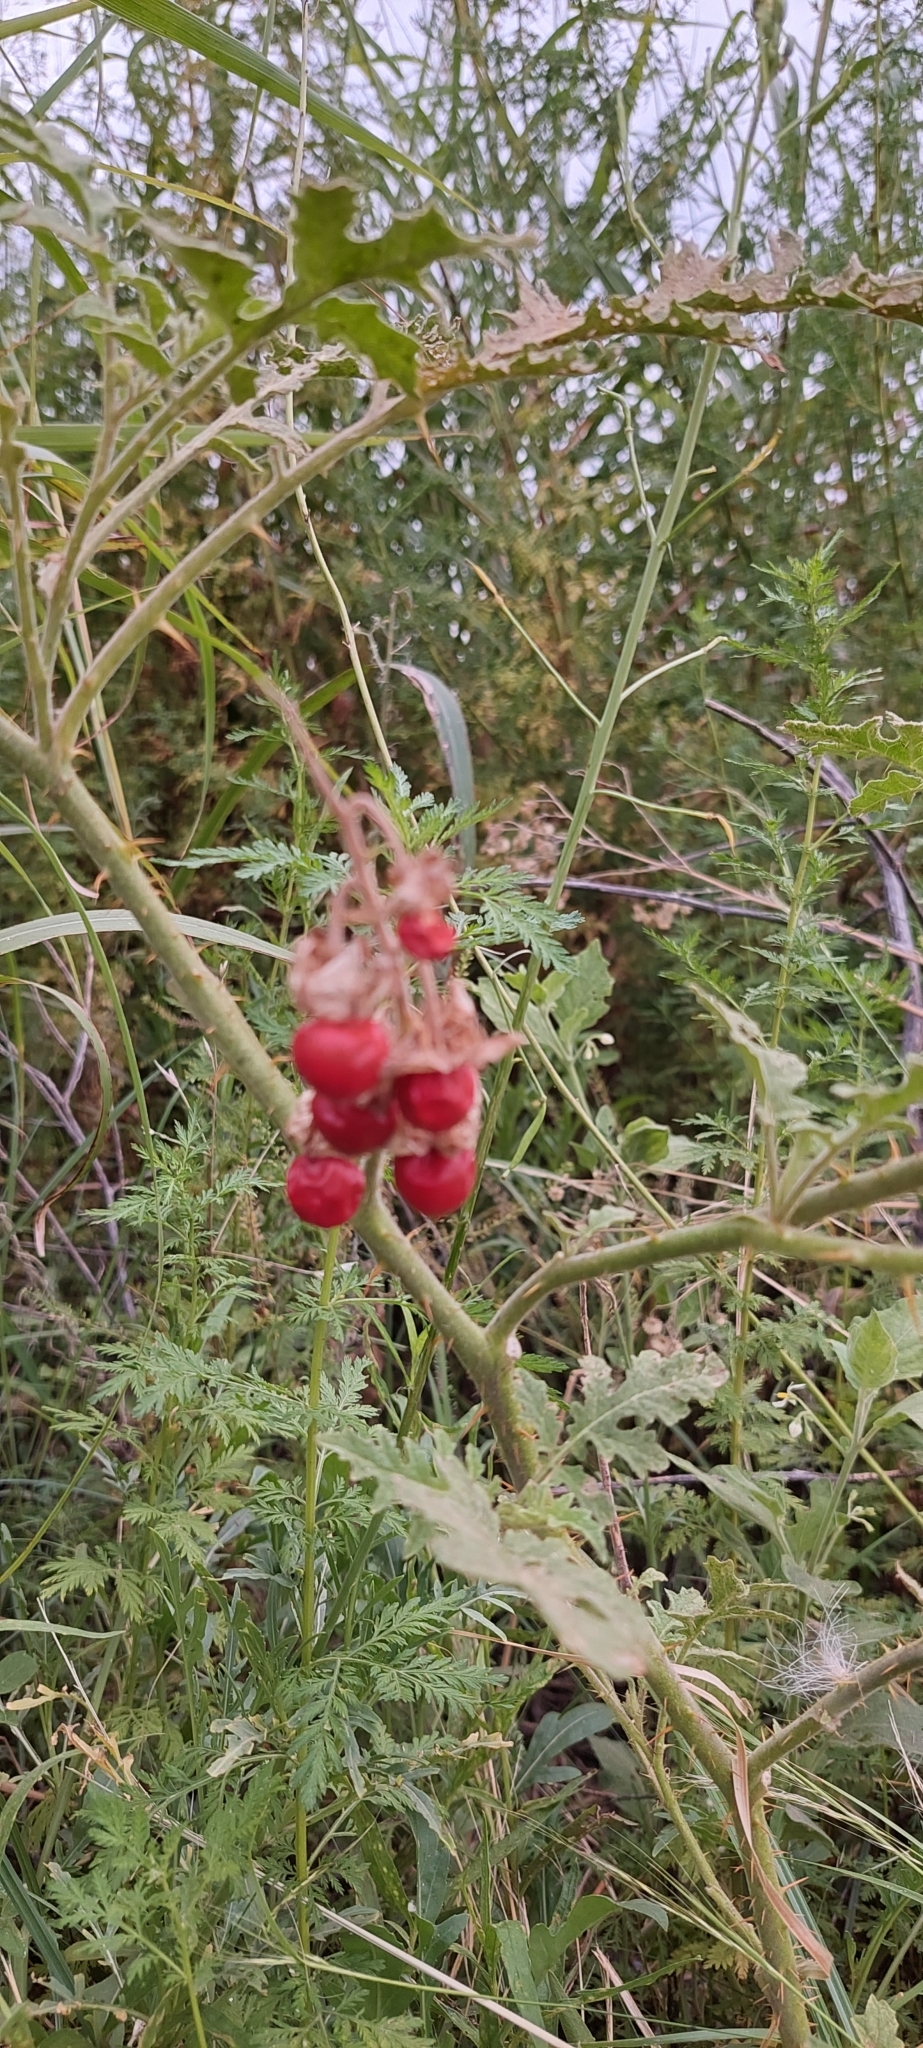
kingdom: Plantae
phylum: Tracheophyta
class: Magnoliopsida
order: Solanales
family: Solanaceae
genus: Solanum
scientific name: Solanum sisymbriifolium
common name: Red buffalo-bur
